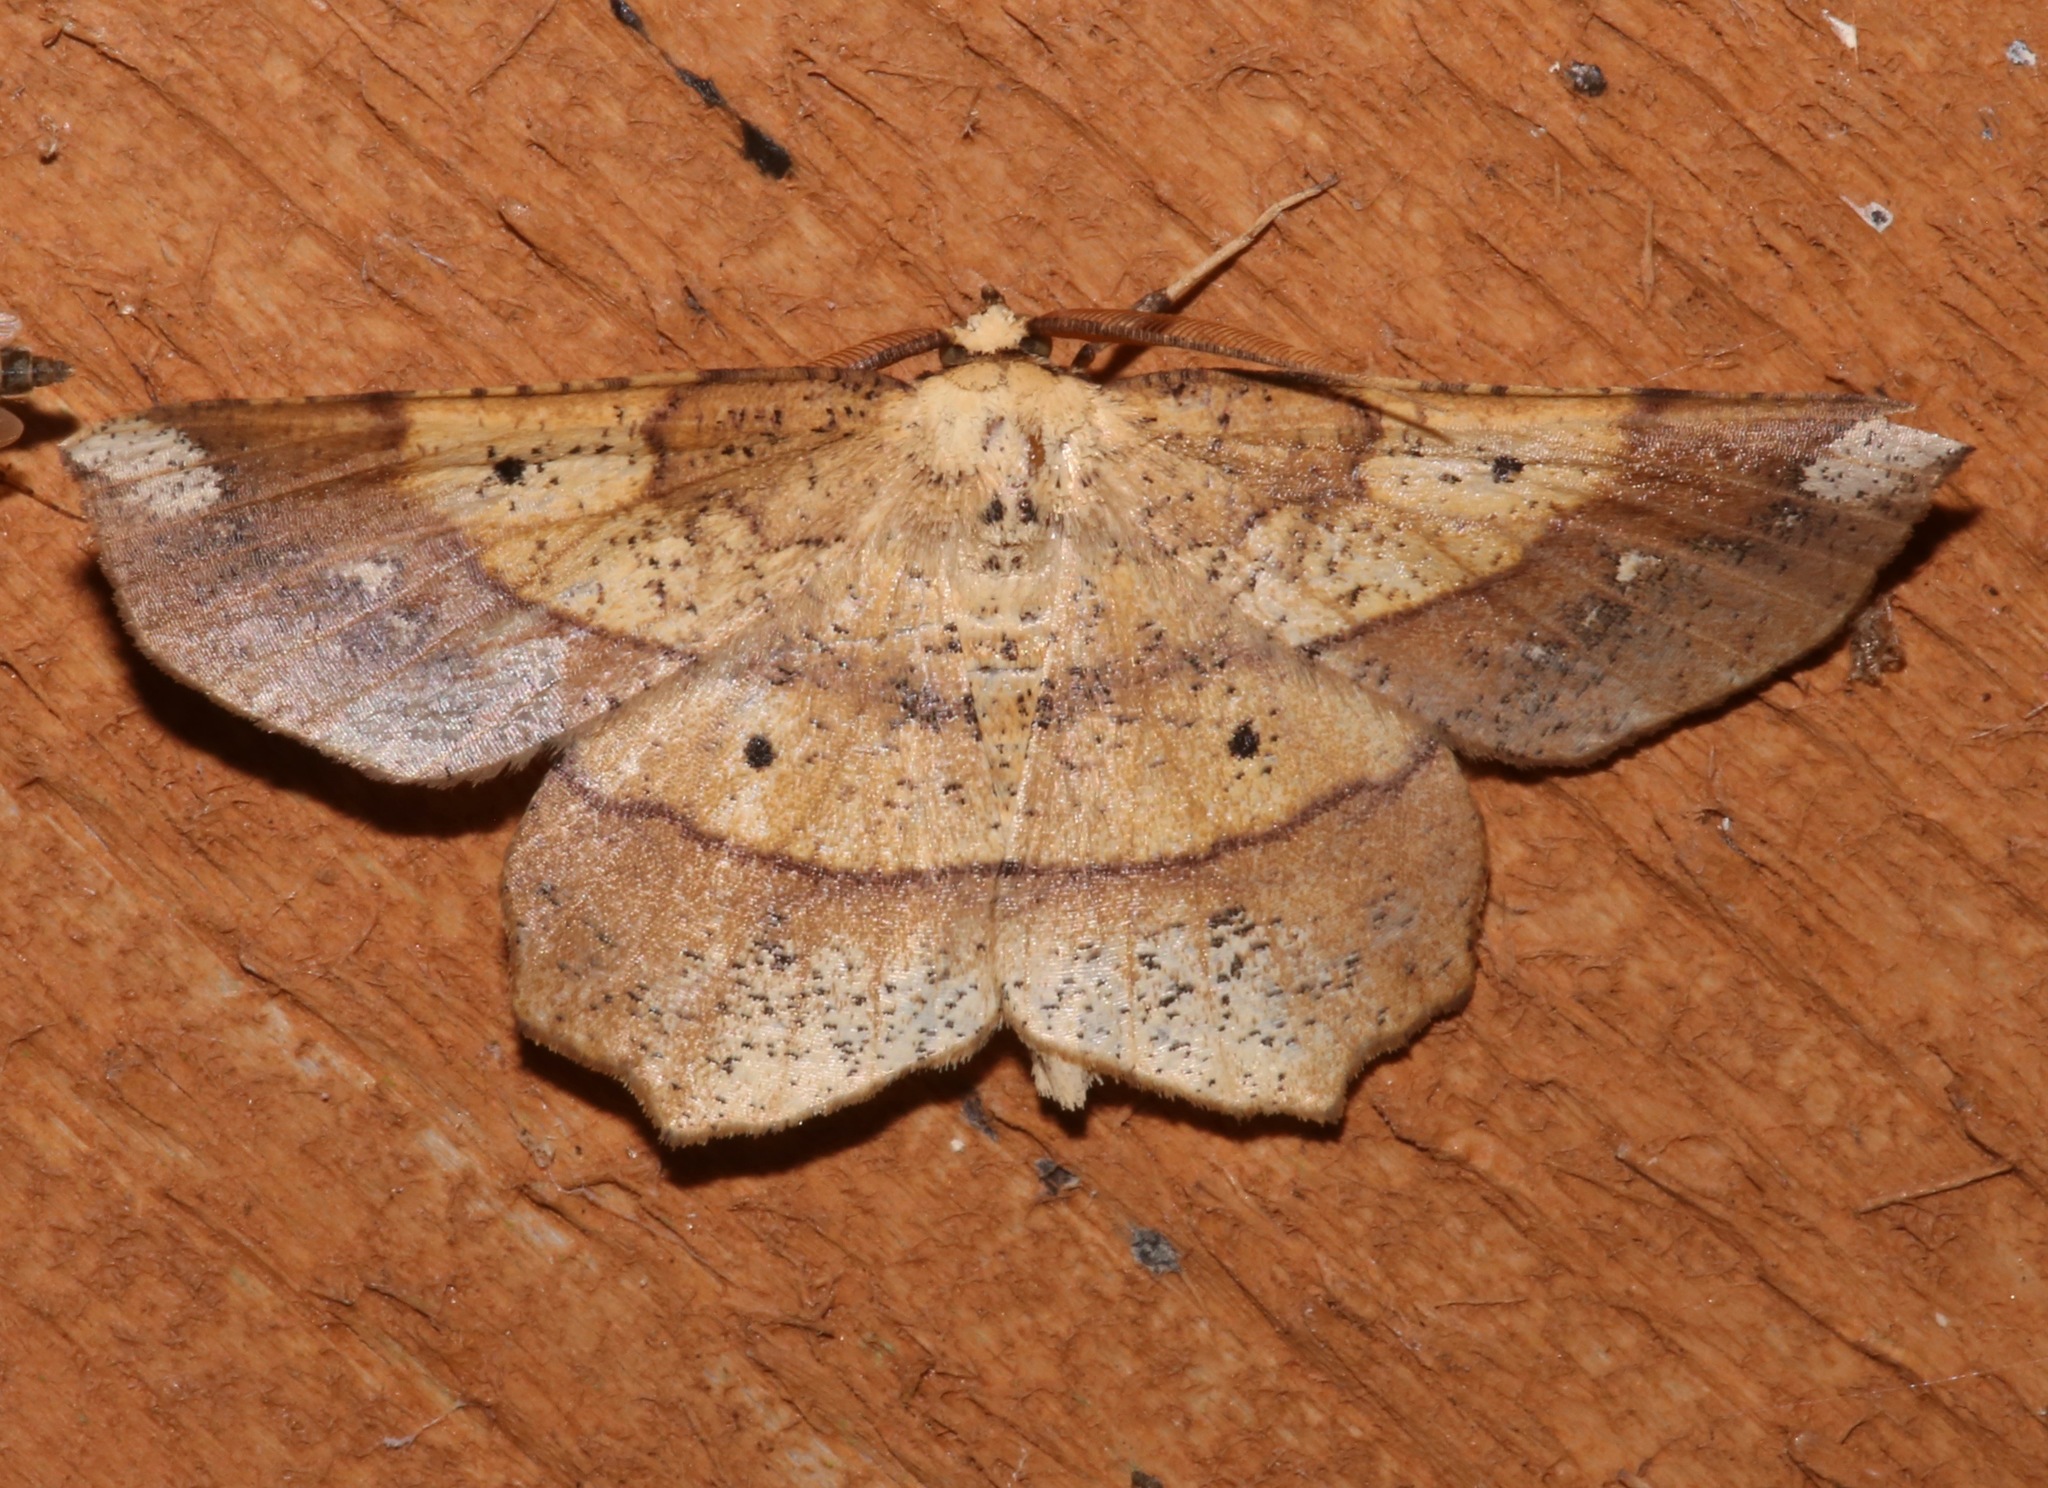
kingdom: Animalia
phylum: Arthropoda
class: Insecta
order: Lepidoptera
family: Geometridae
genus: Euchlaena
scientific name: Euchlaena amoenaria
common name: Deep yellow euchlaena
